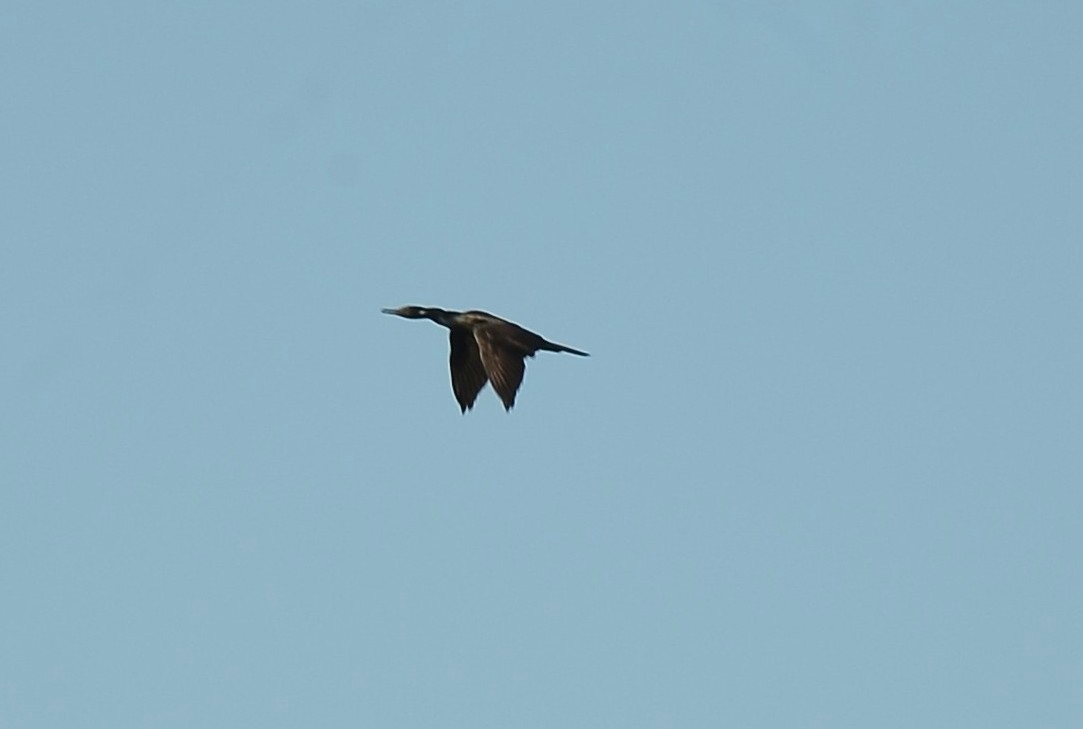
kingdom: Animalia
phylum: Chordata
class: Aves
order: Suliformes
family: Phalacrocoracidae
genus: Phalacrocorax
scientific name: Phalacrocorax fuscicollis
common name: Indian cormorant
